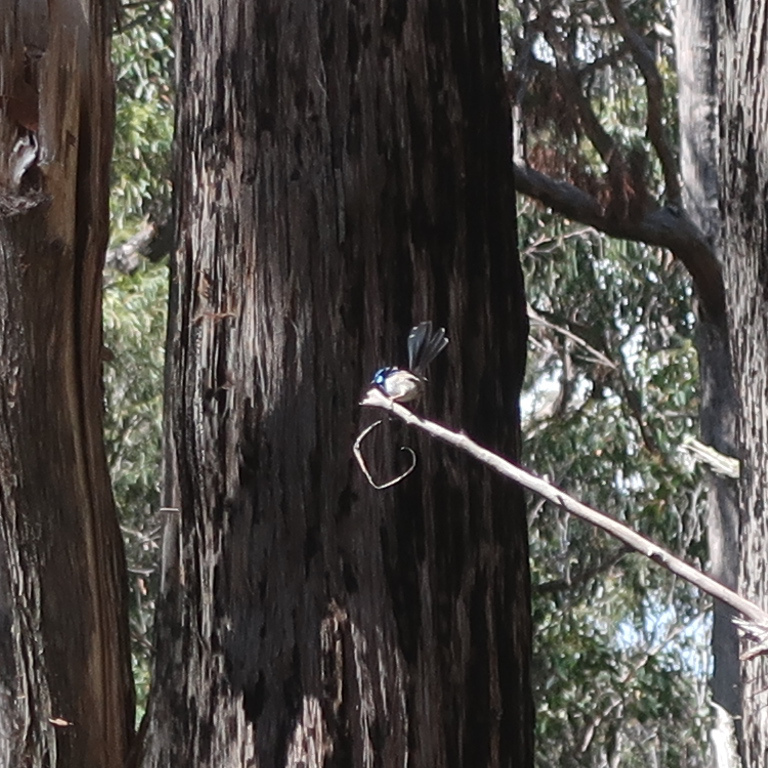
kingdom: Animalia
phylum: Chordata
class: Aves
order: Passeriformes
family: Maluridae
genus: Malurus
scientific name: Malurus cyaneus
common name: Superb fairywren
